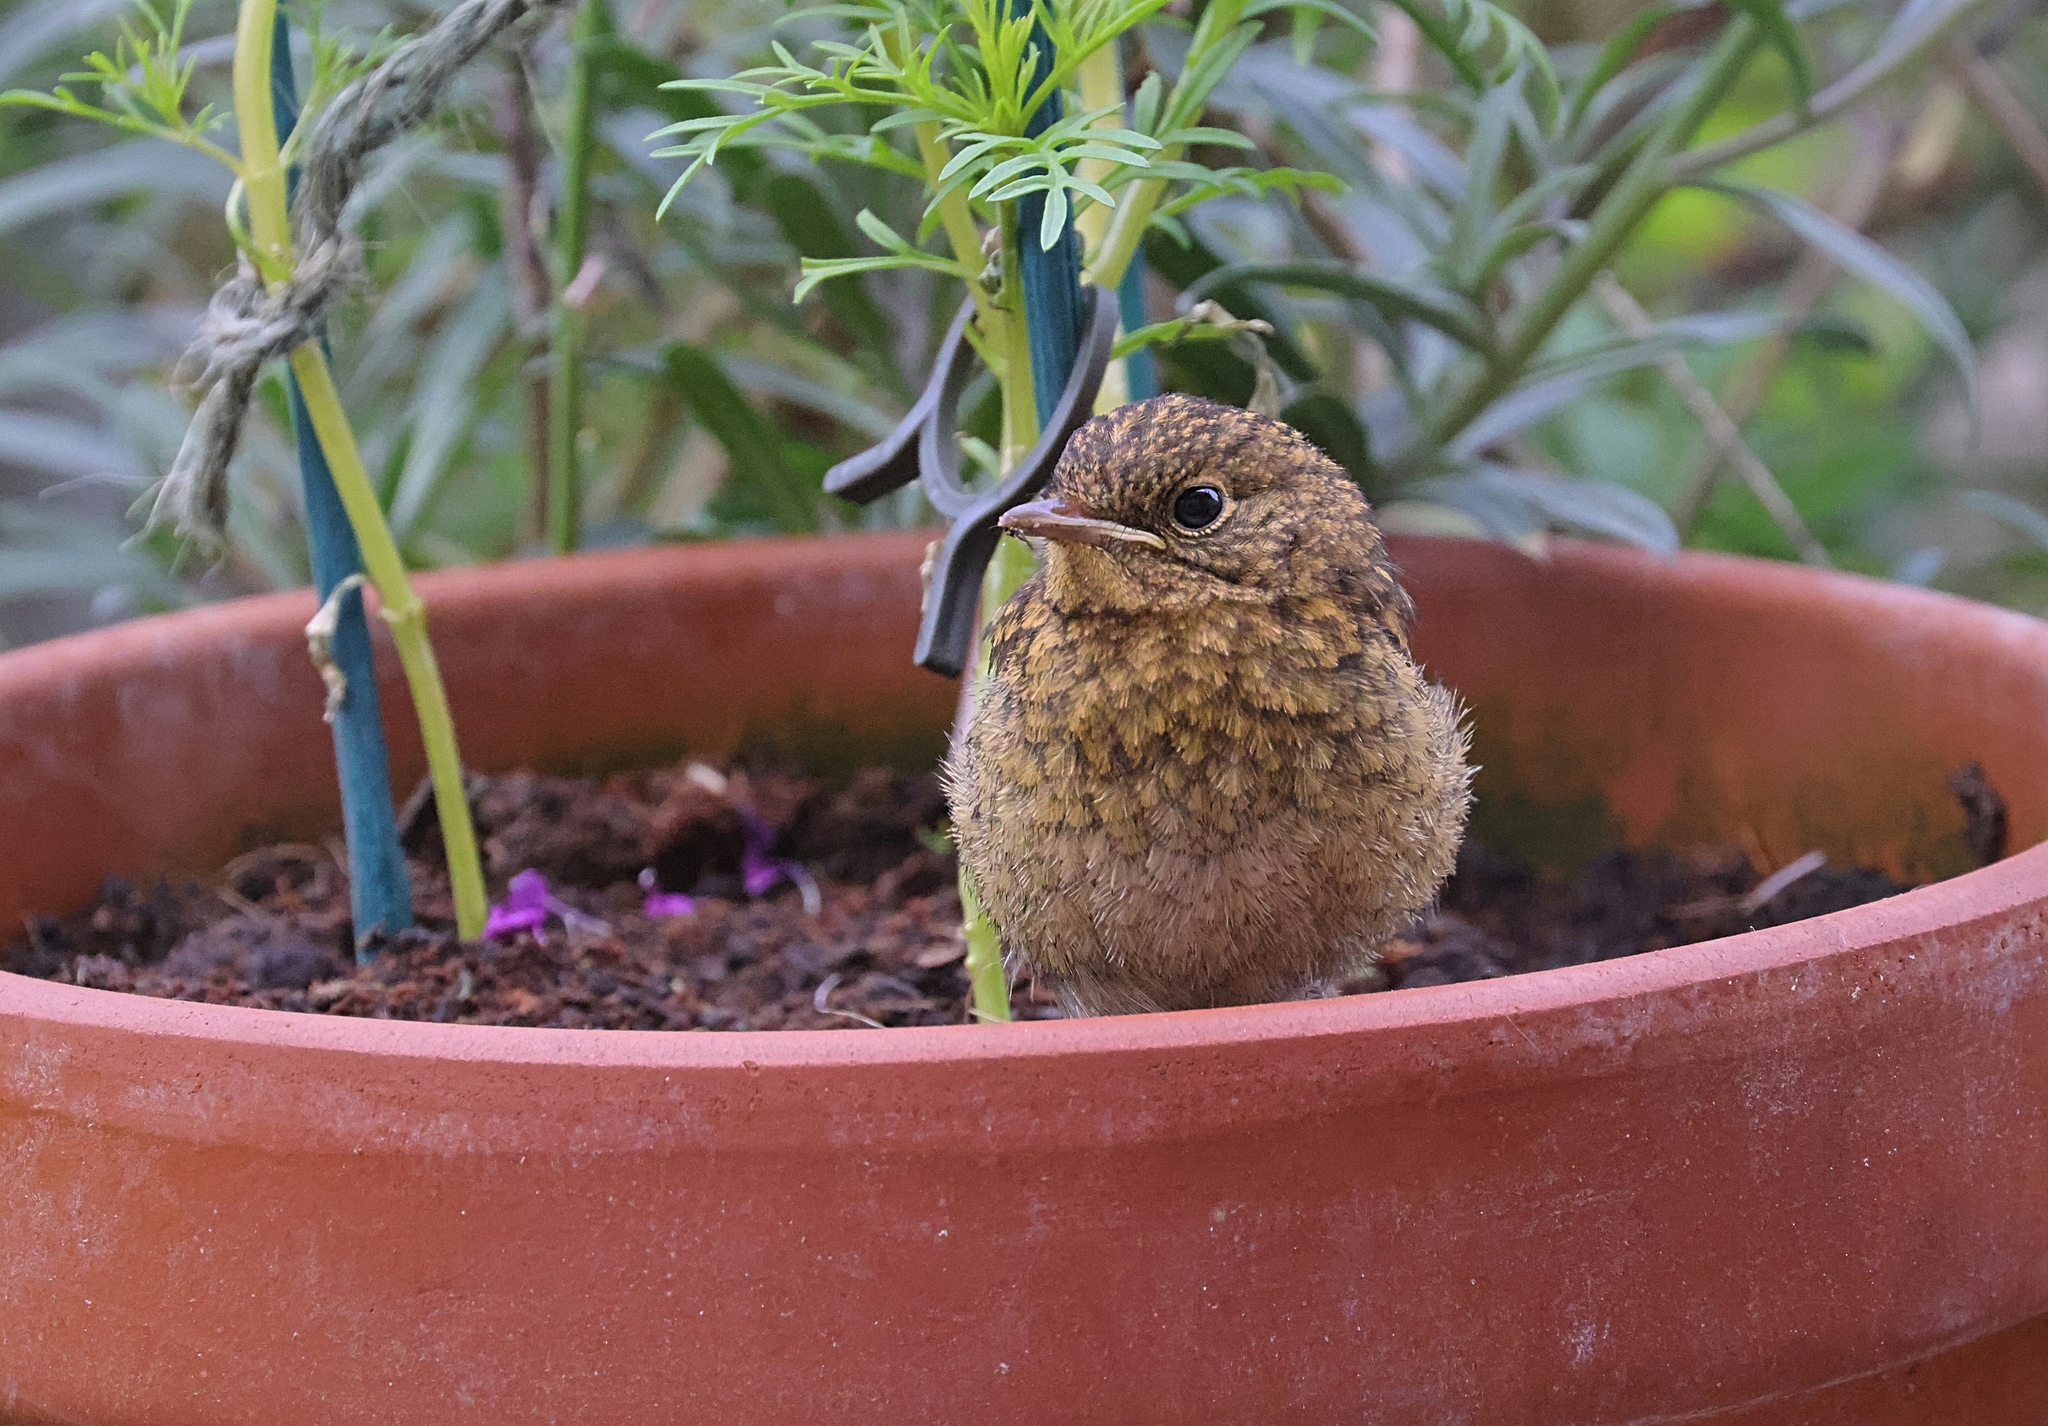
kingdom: Animalia
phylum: Chordata
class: Aves
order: Passeriformes
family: Muscicapidae
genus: Erithacus
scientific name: Erithacus rubecula
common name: European robin
